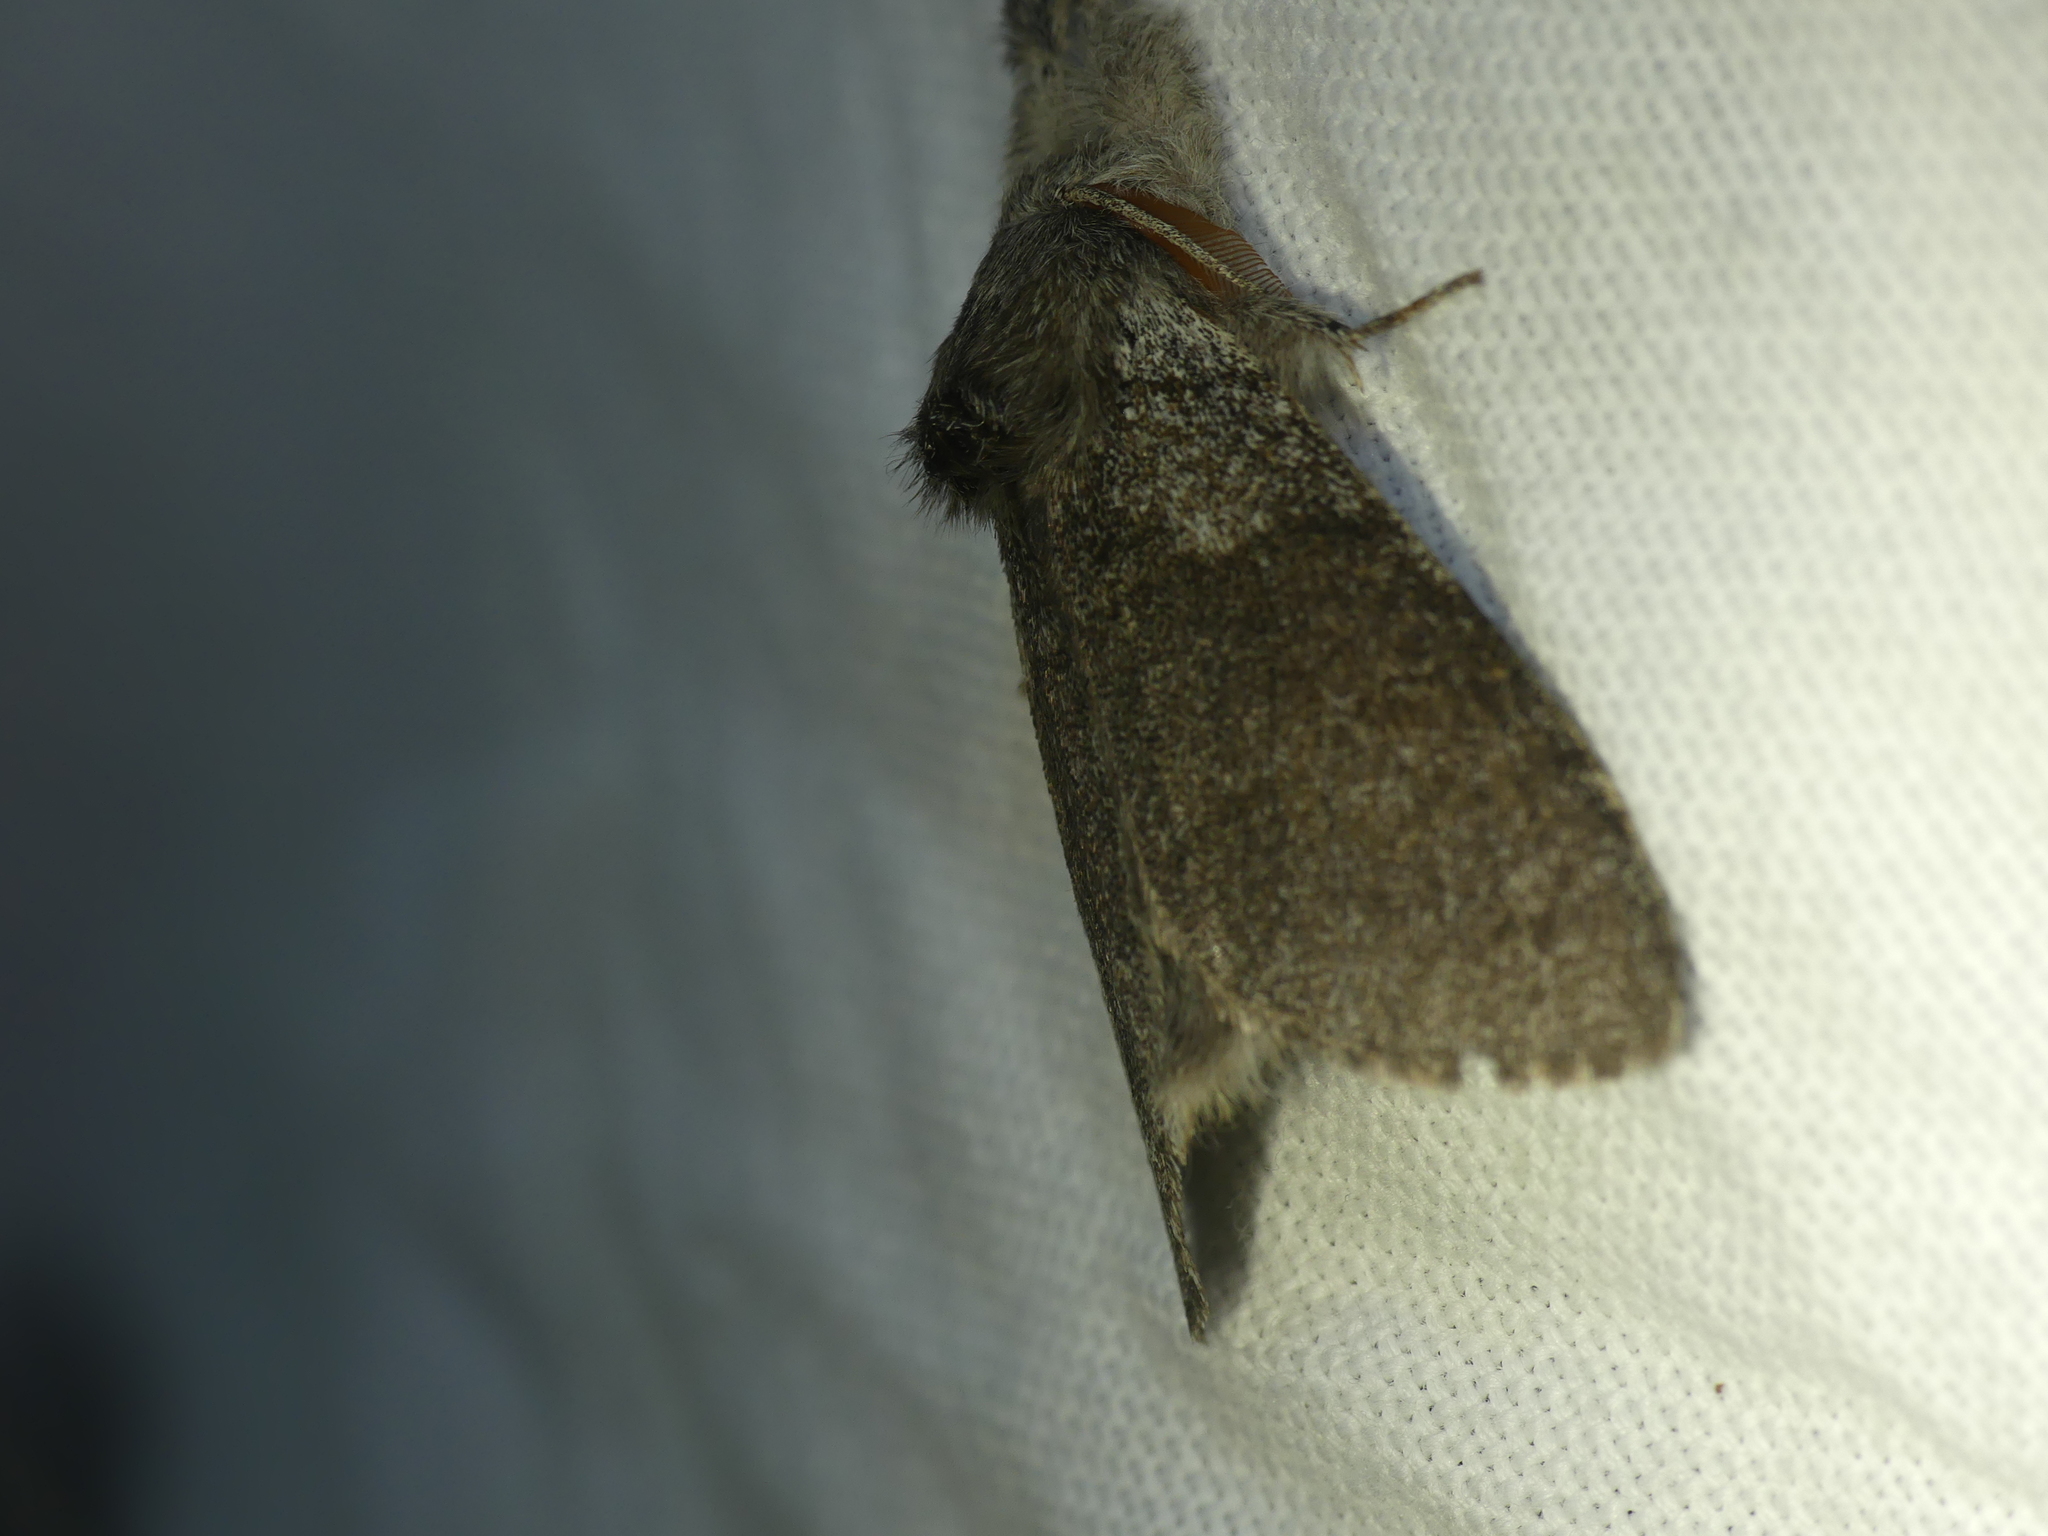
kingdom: Animalia
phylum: Arthropoda
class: Insecta
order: Lepidoptera
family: Erebidae
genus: Calliteara
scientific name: Calliteara pudibunda
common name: Pale tussock
